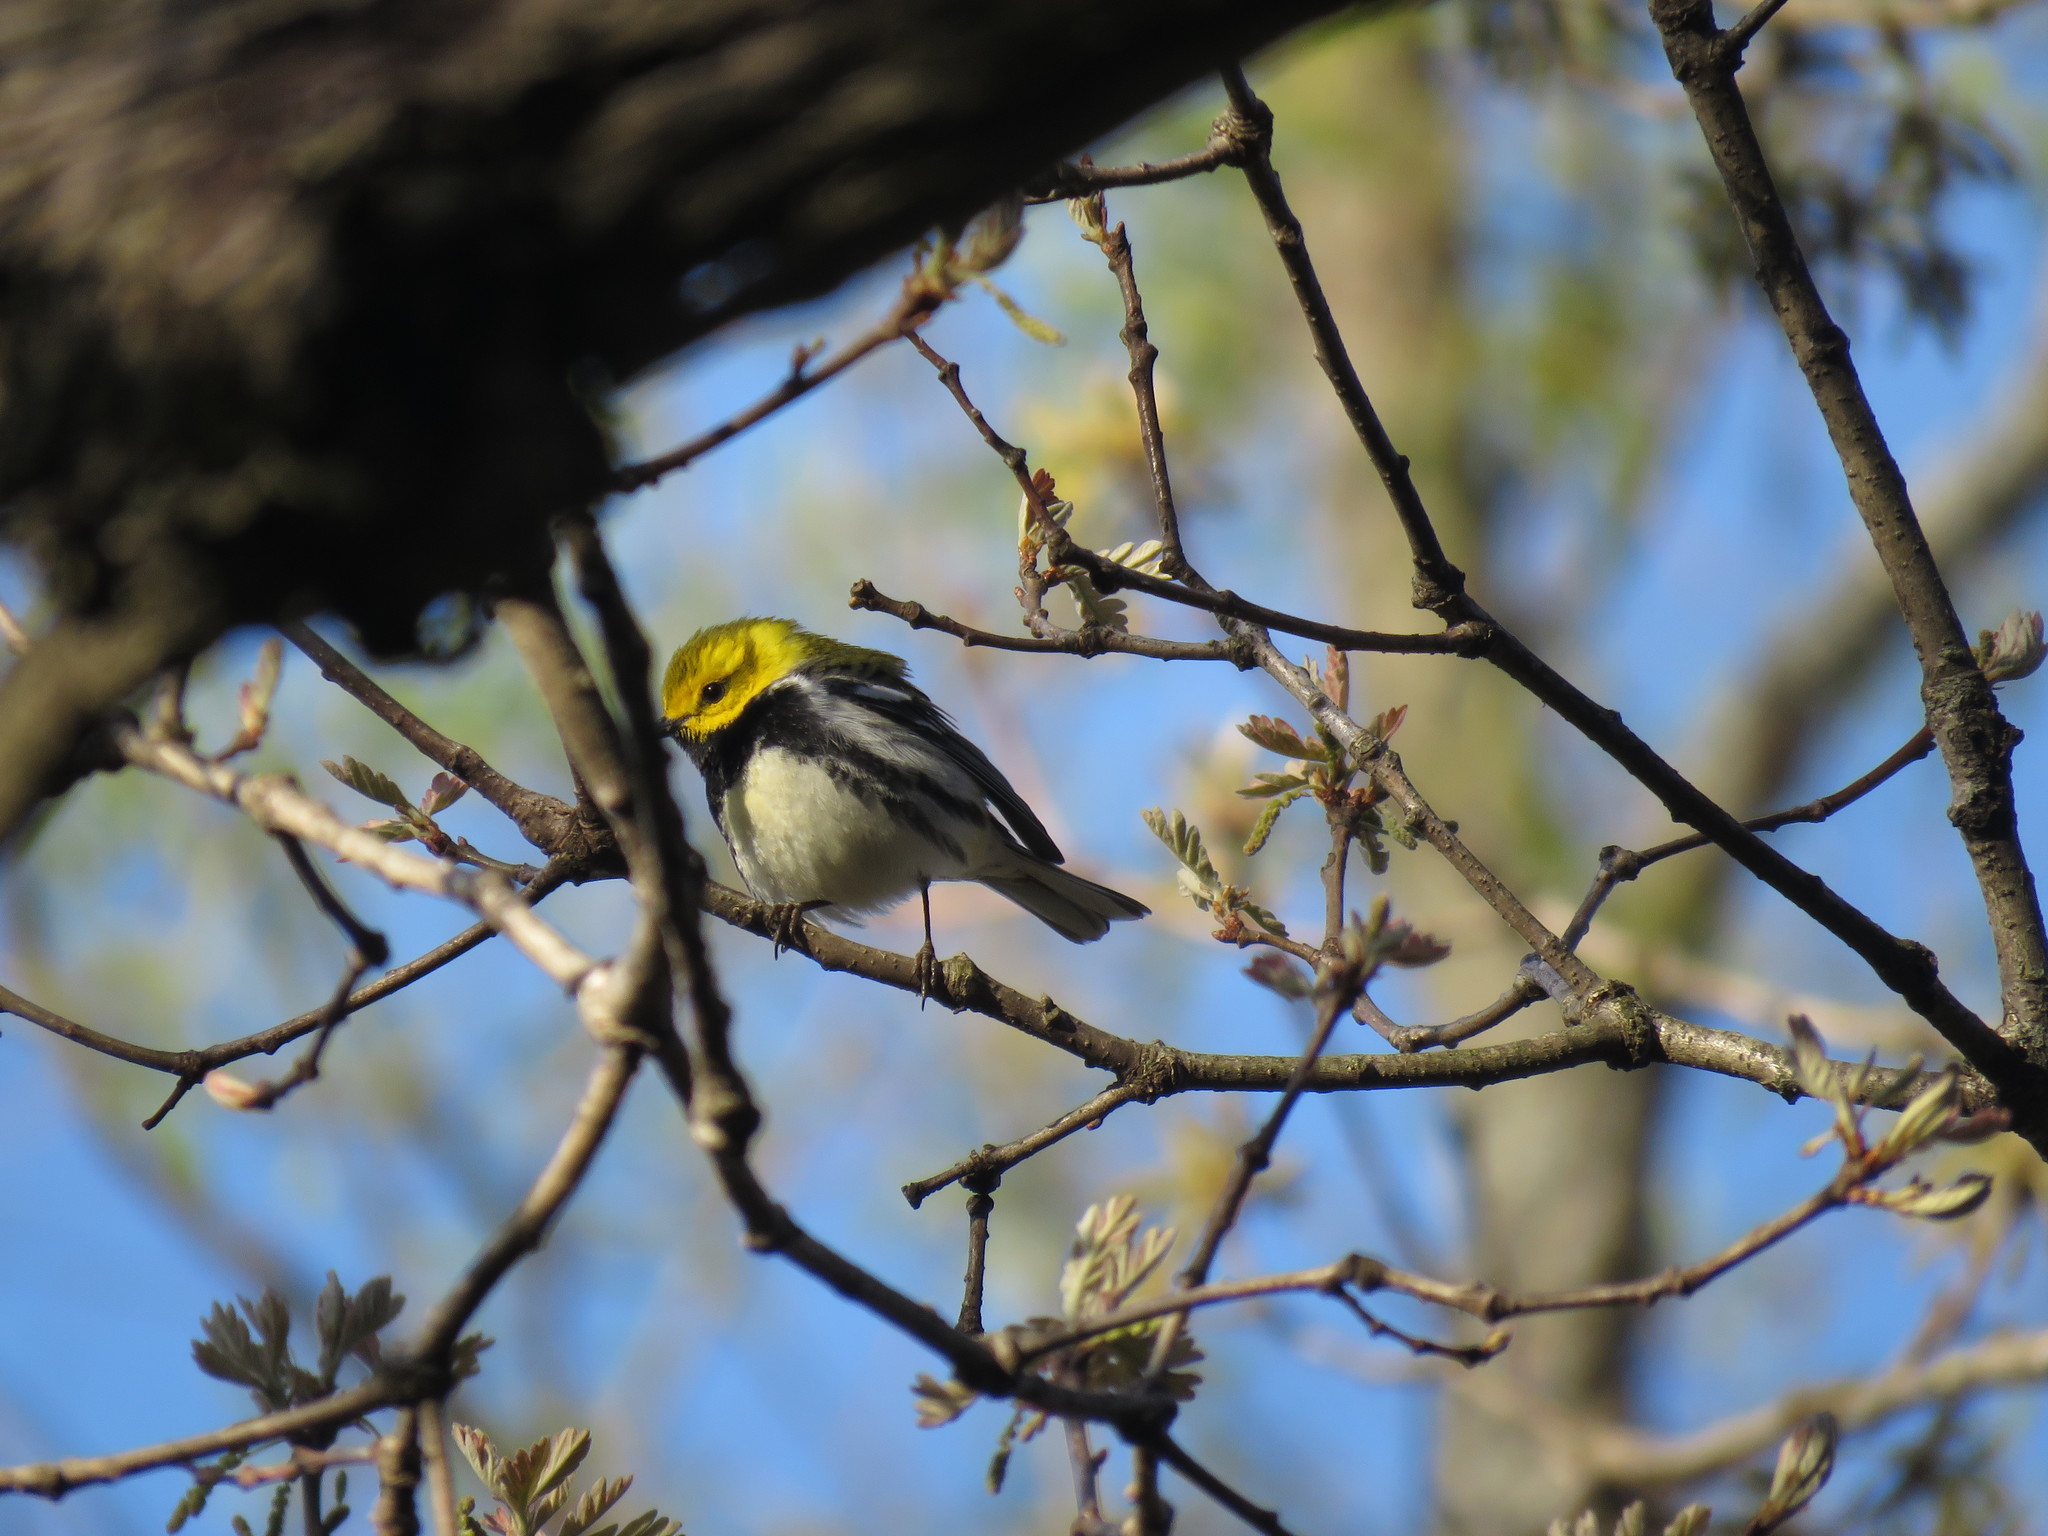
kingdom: Animalia
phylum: Chordata
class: Aves
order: Passeriformes
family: Parulidae
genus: Setophaga
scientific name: Setophaga virens
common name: Black-throated green warbler
